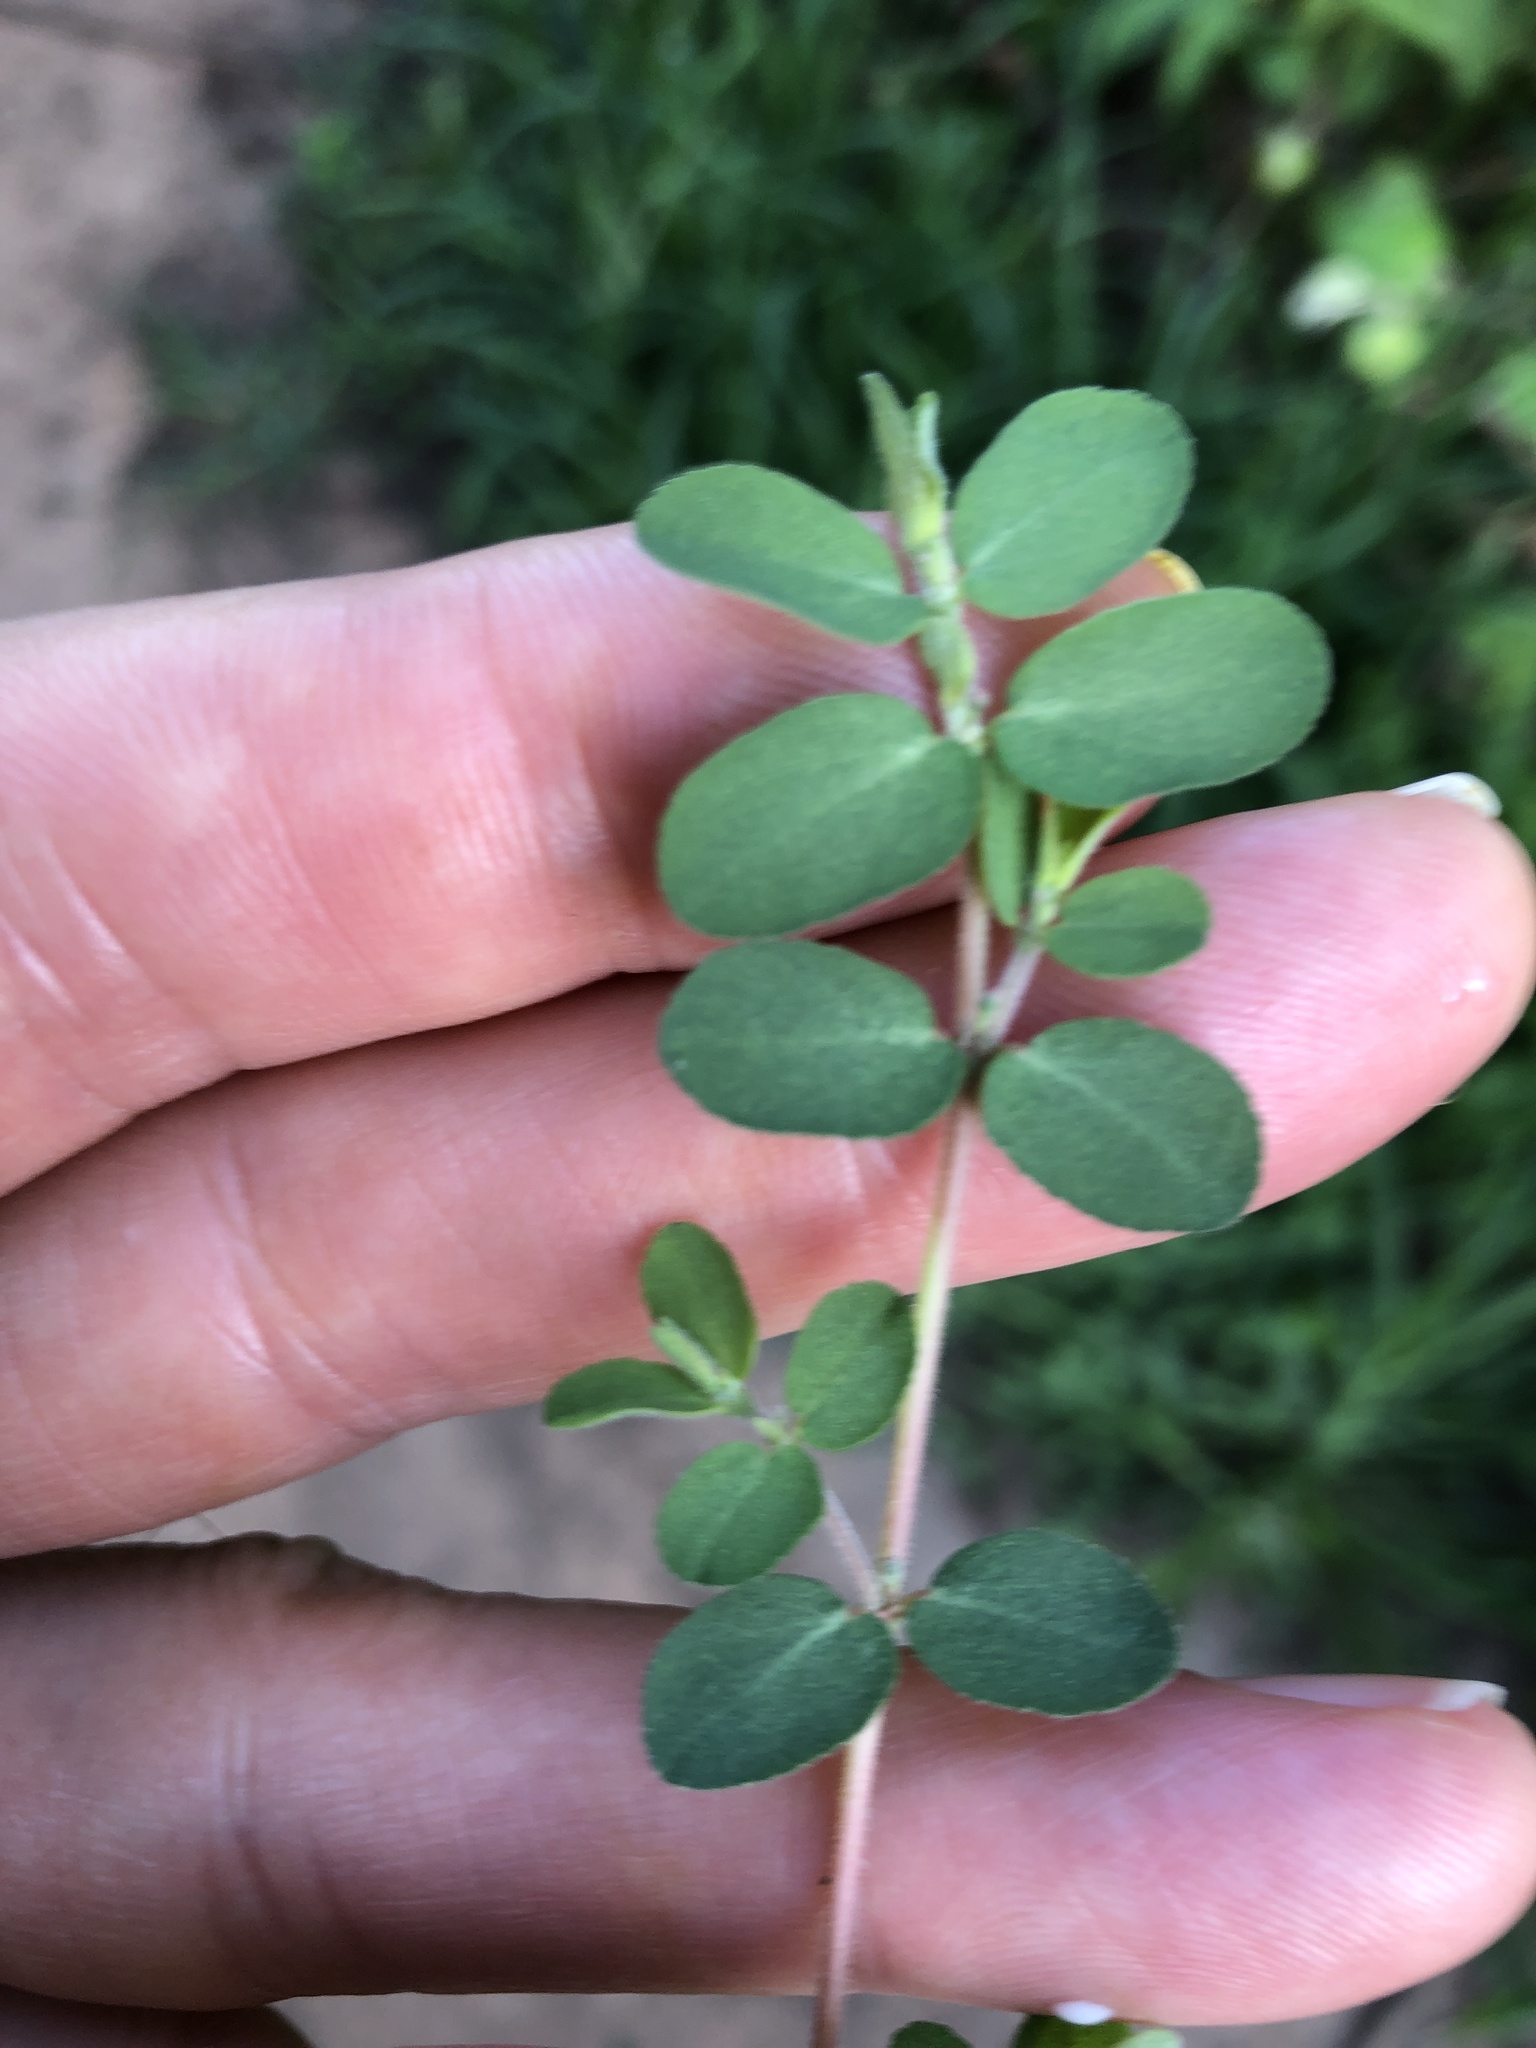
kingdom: Plantae
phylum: Tracheophyta
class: Magnoliopsida
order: Malpighiales
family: Euphorbiaceae
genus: Euphorbia
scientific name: Euphorbia prostrata
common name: Prostrate sandmat
